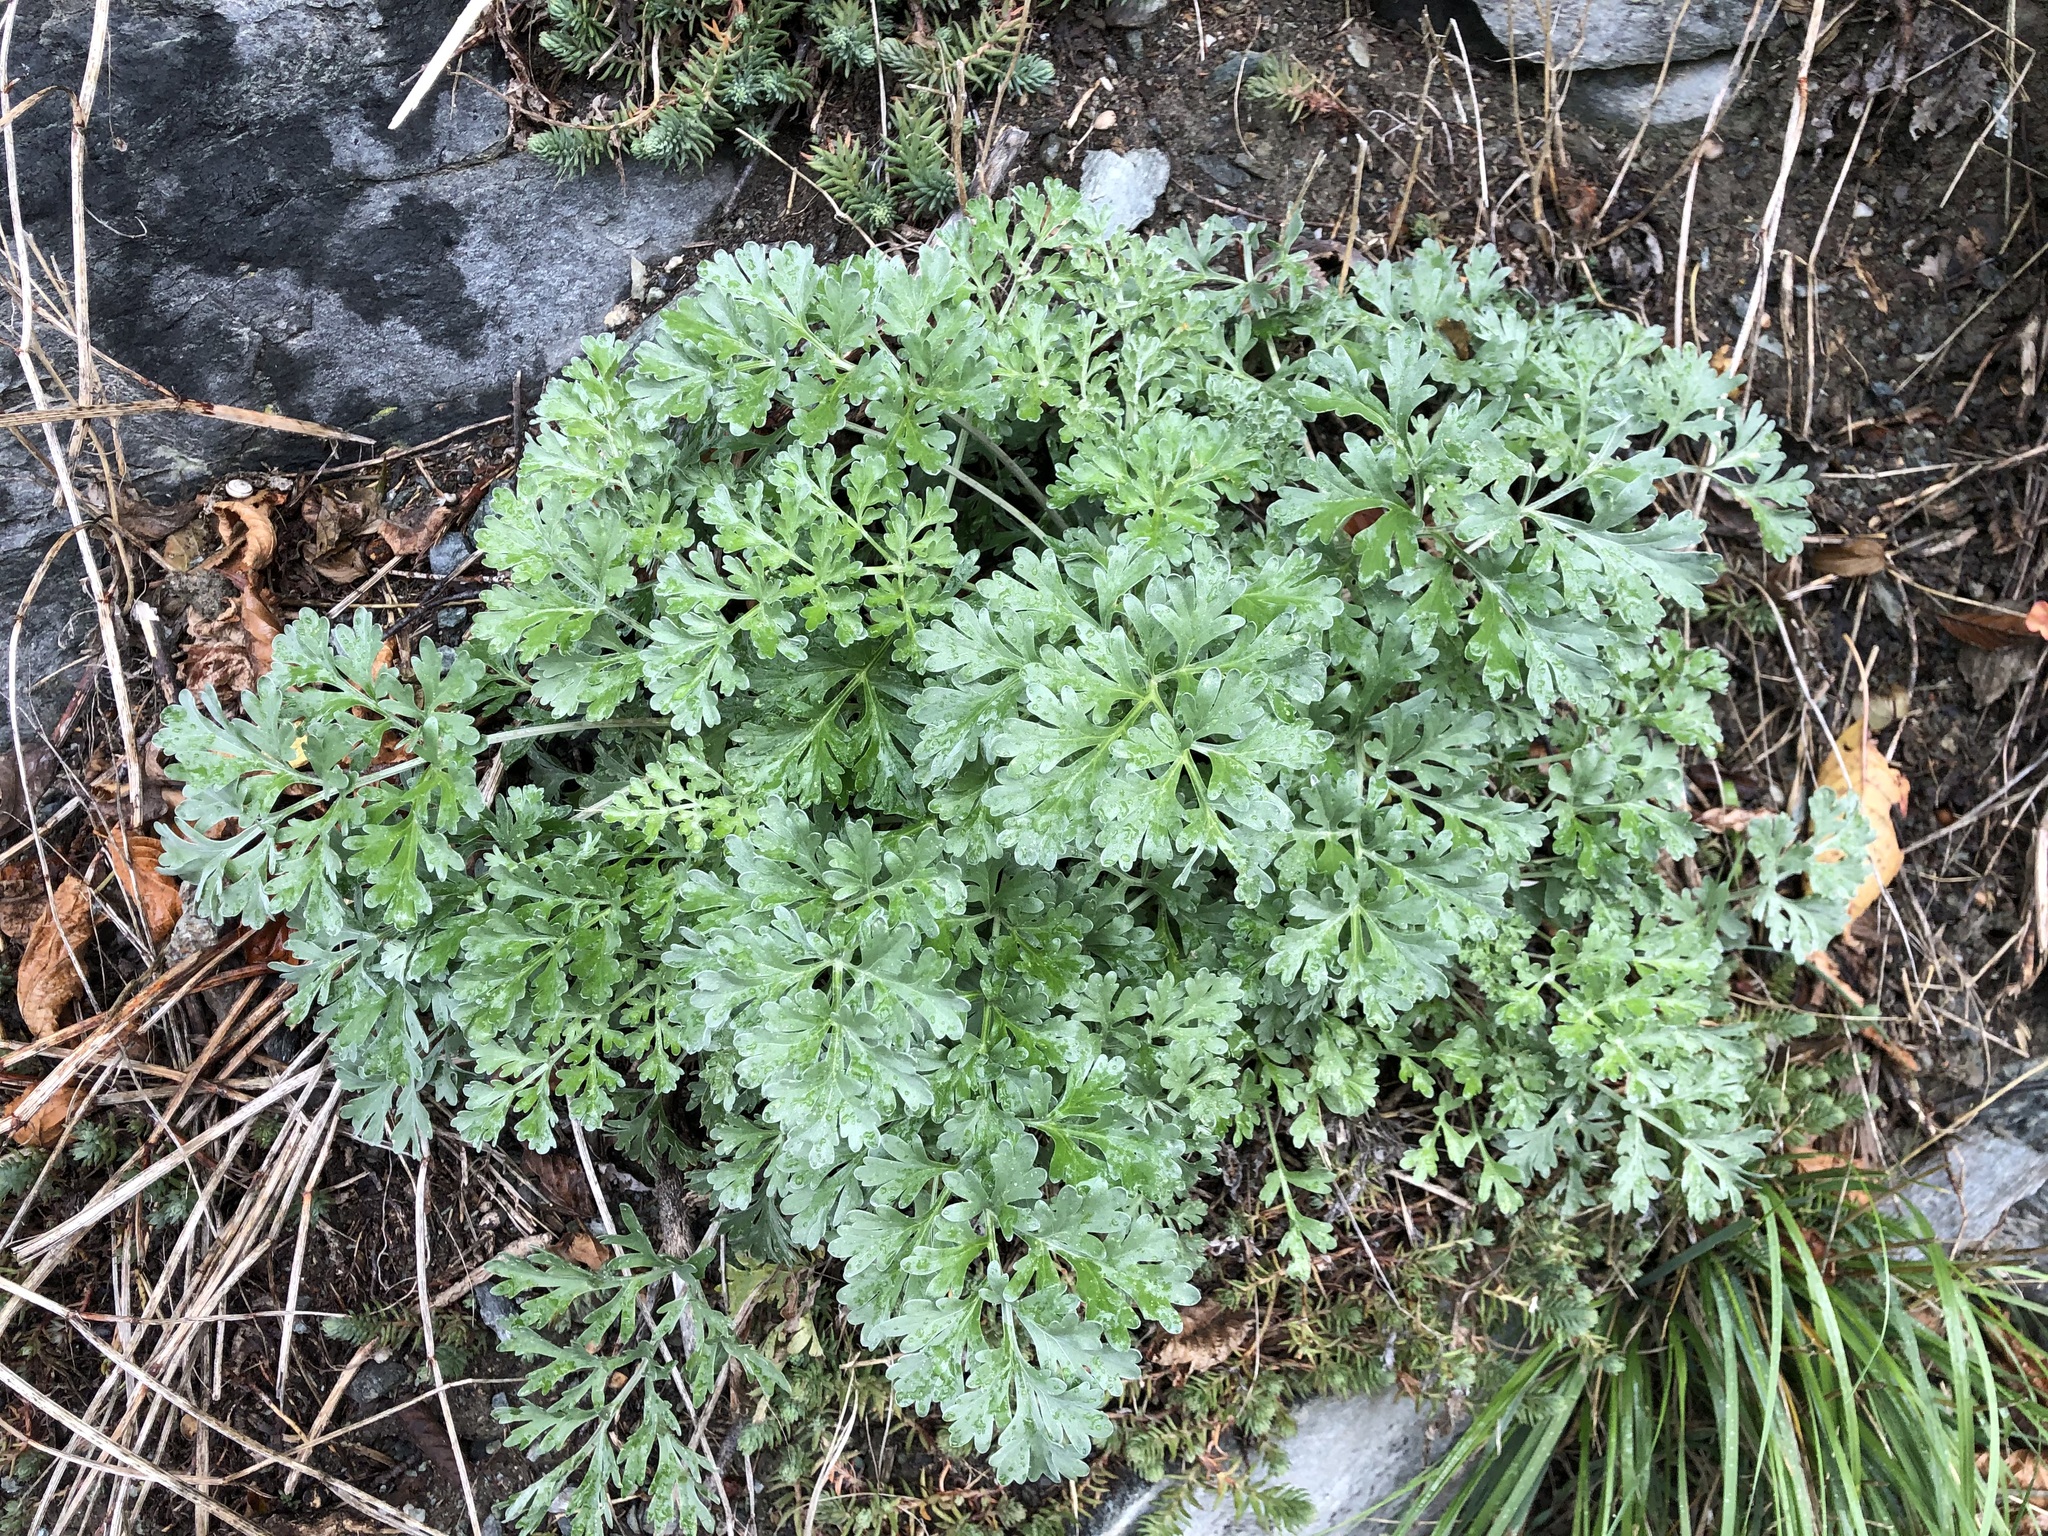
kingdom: Plantae
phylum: Tracheophyta
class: Magnoliopsida
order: Asterales
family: Asteraceae
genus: Artemisia
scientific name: Artemisia absinthium
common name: Wormwood
